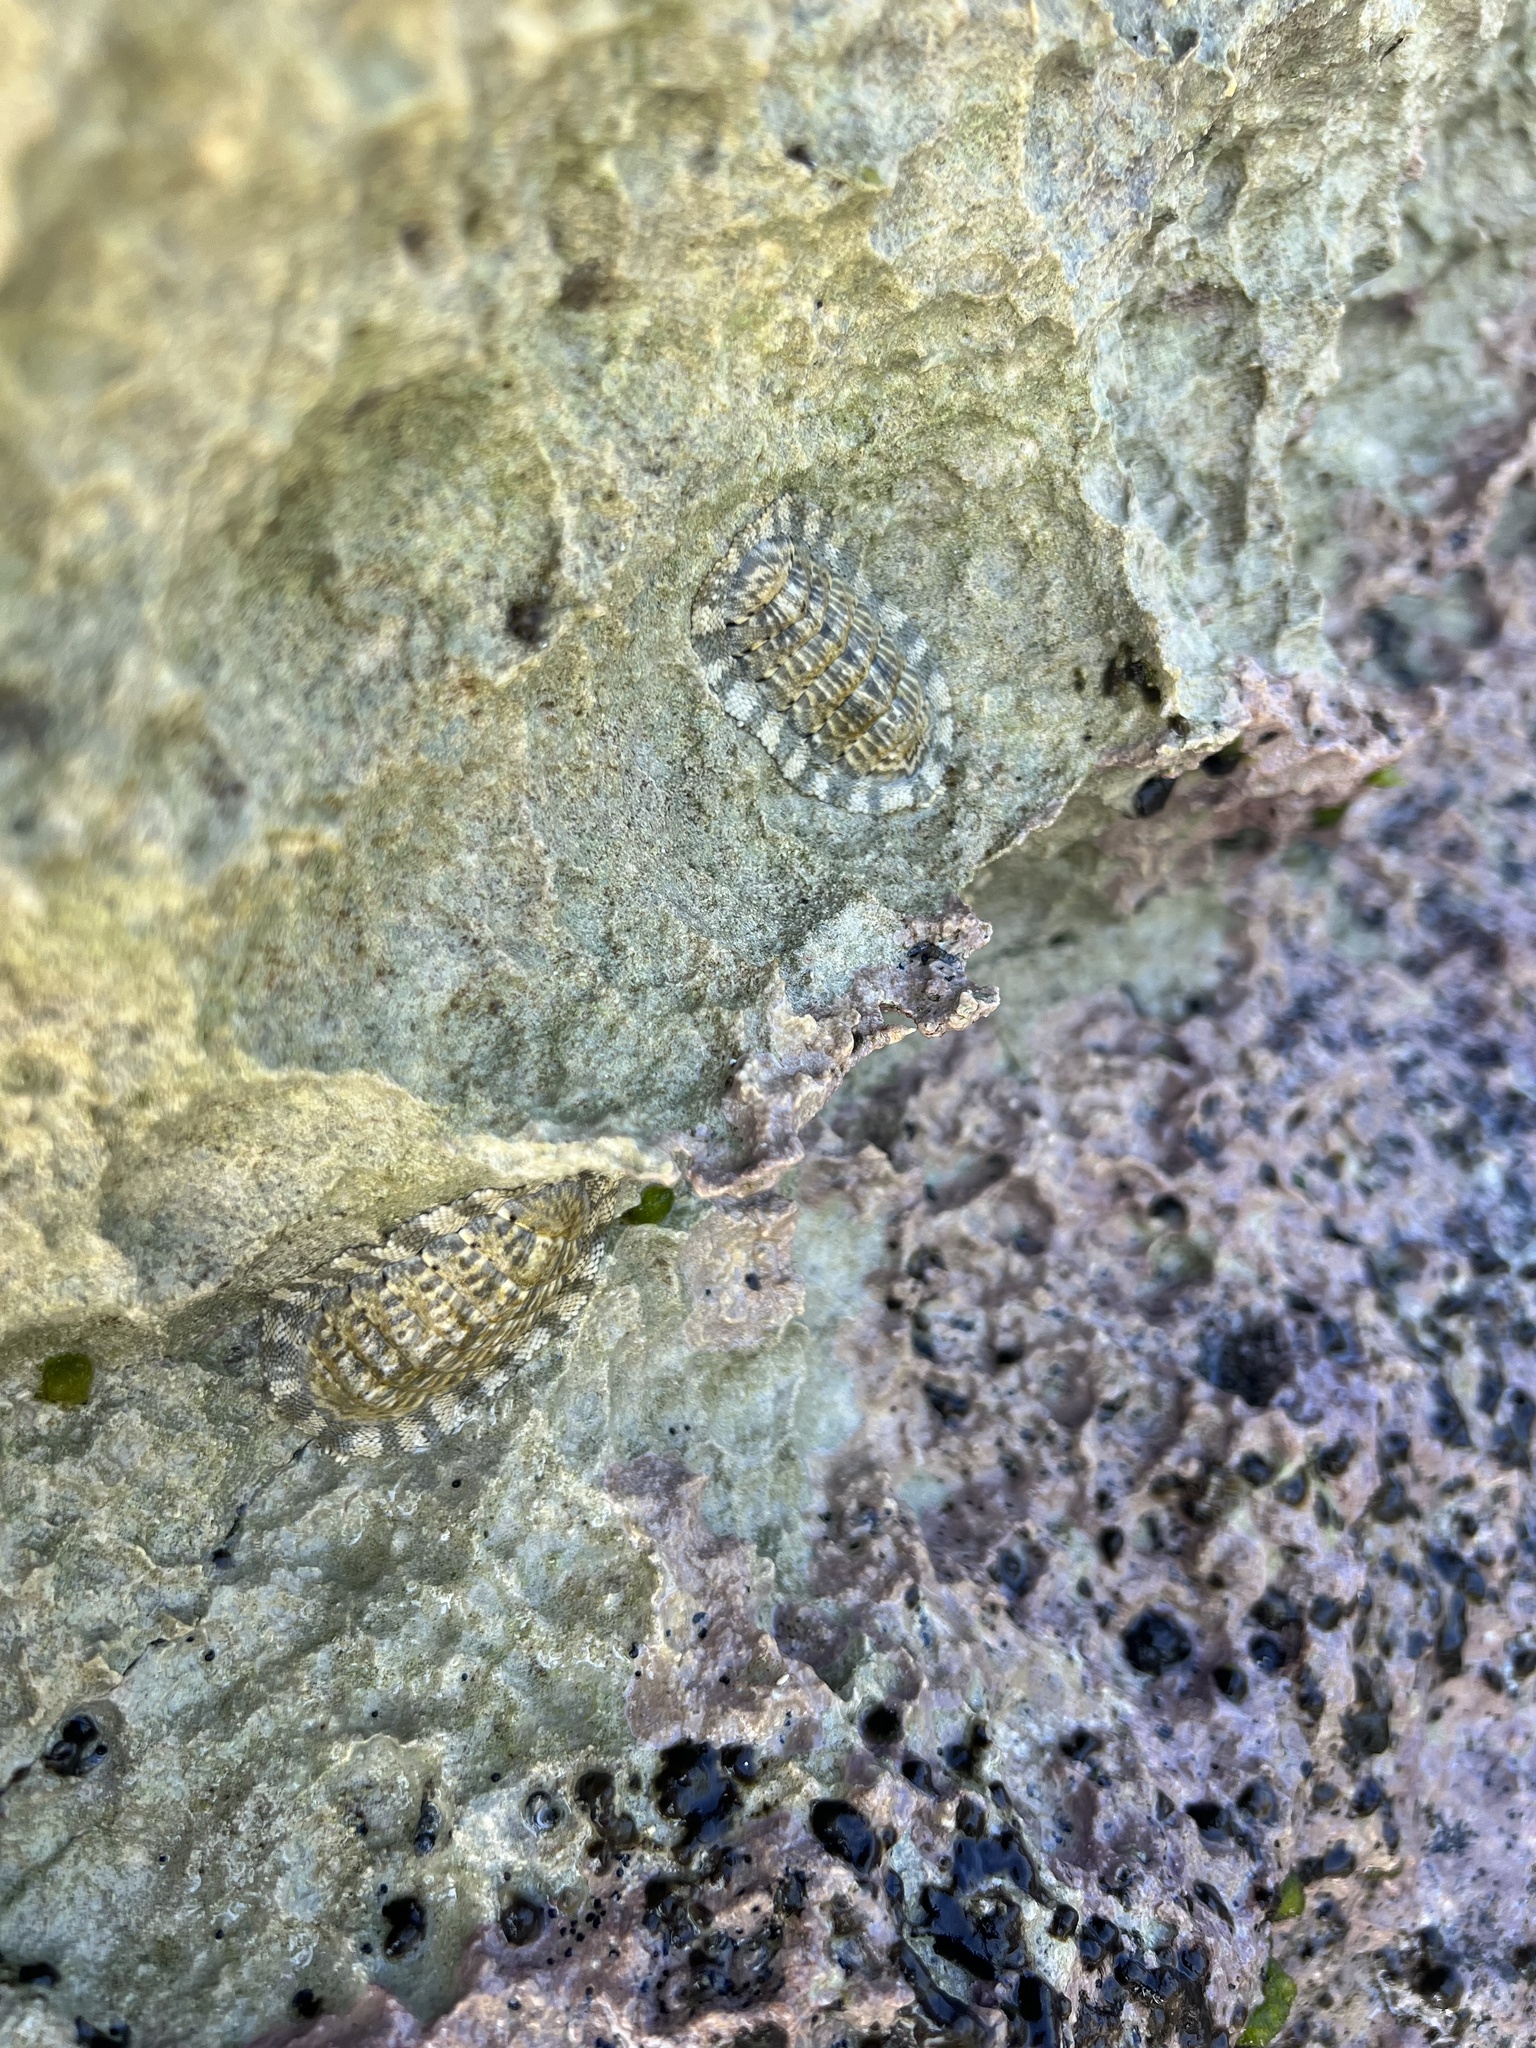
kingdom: Animalia
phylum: Mollusca
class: Polyplacophora
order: Chitonida
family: Chitonidae
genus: Chiton
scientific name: Chiton squamosus
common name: Squamose chiton
